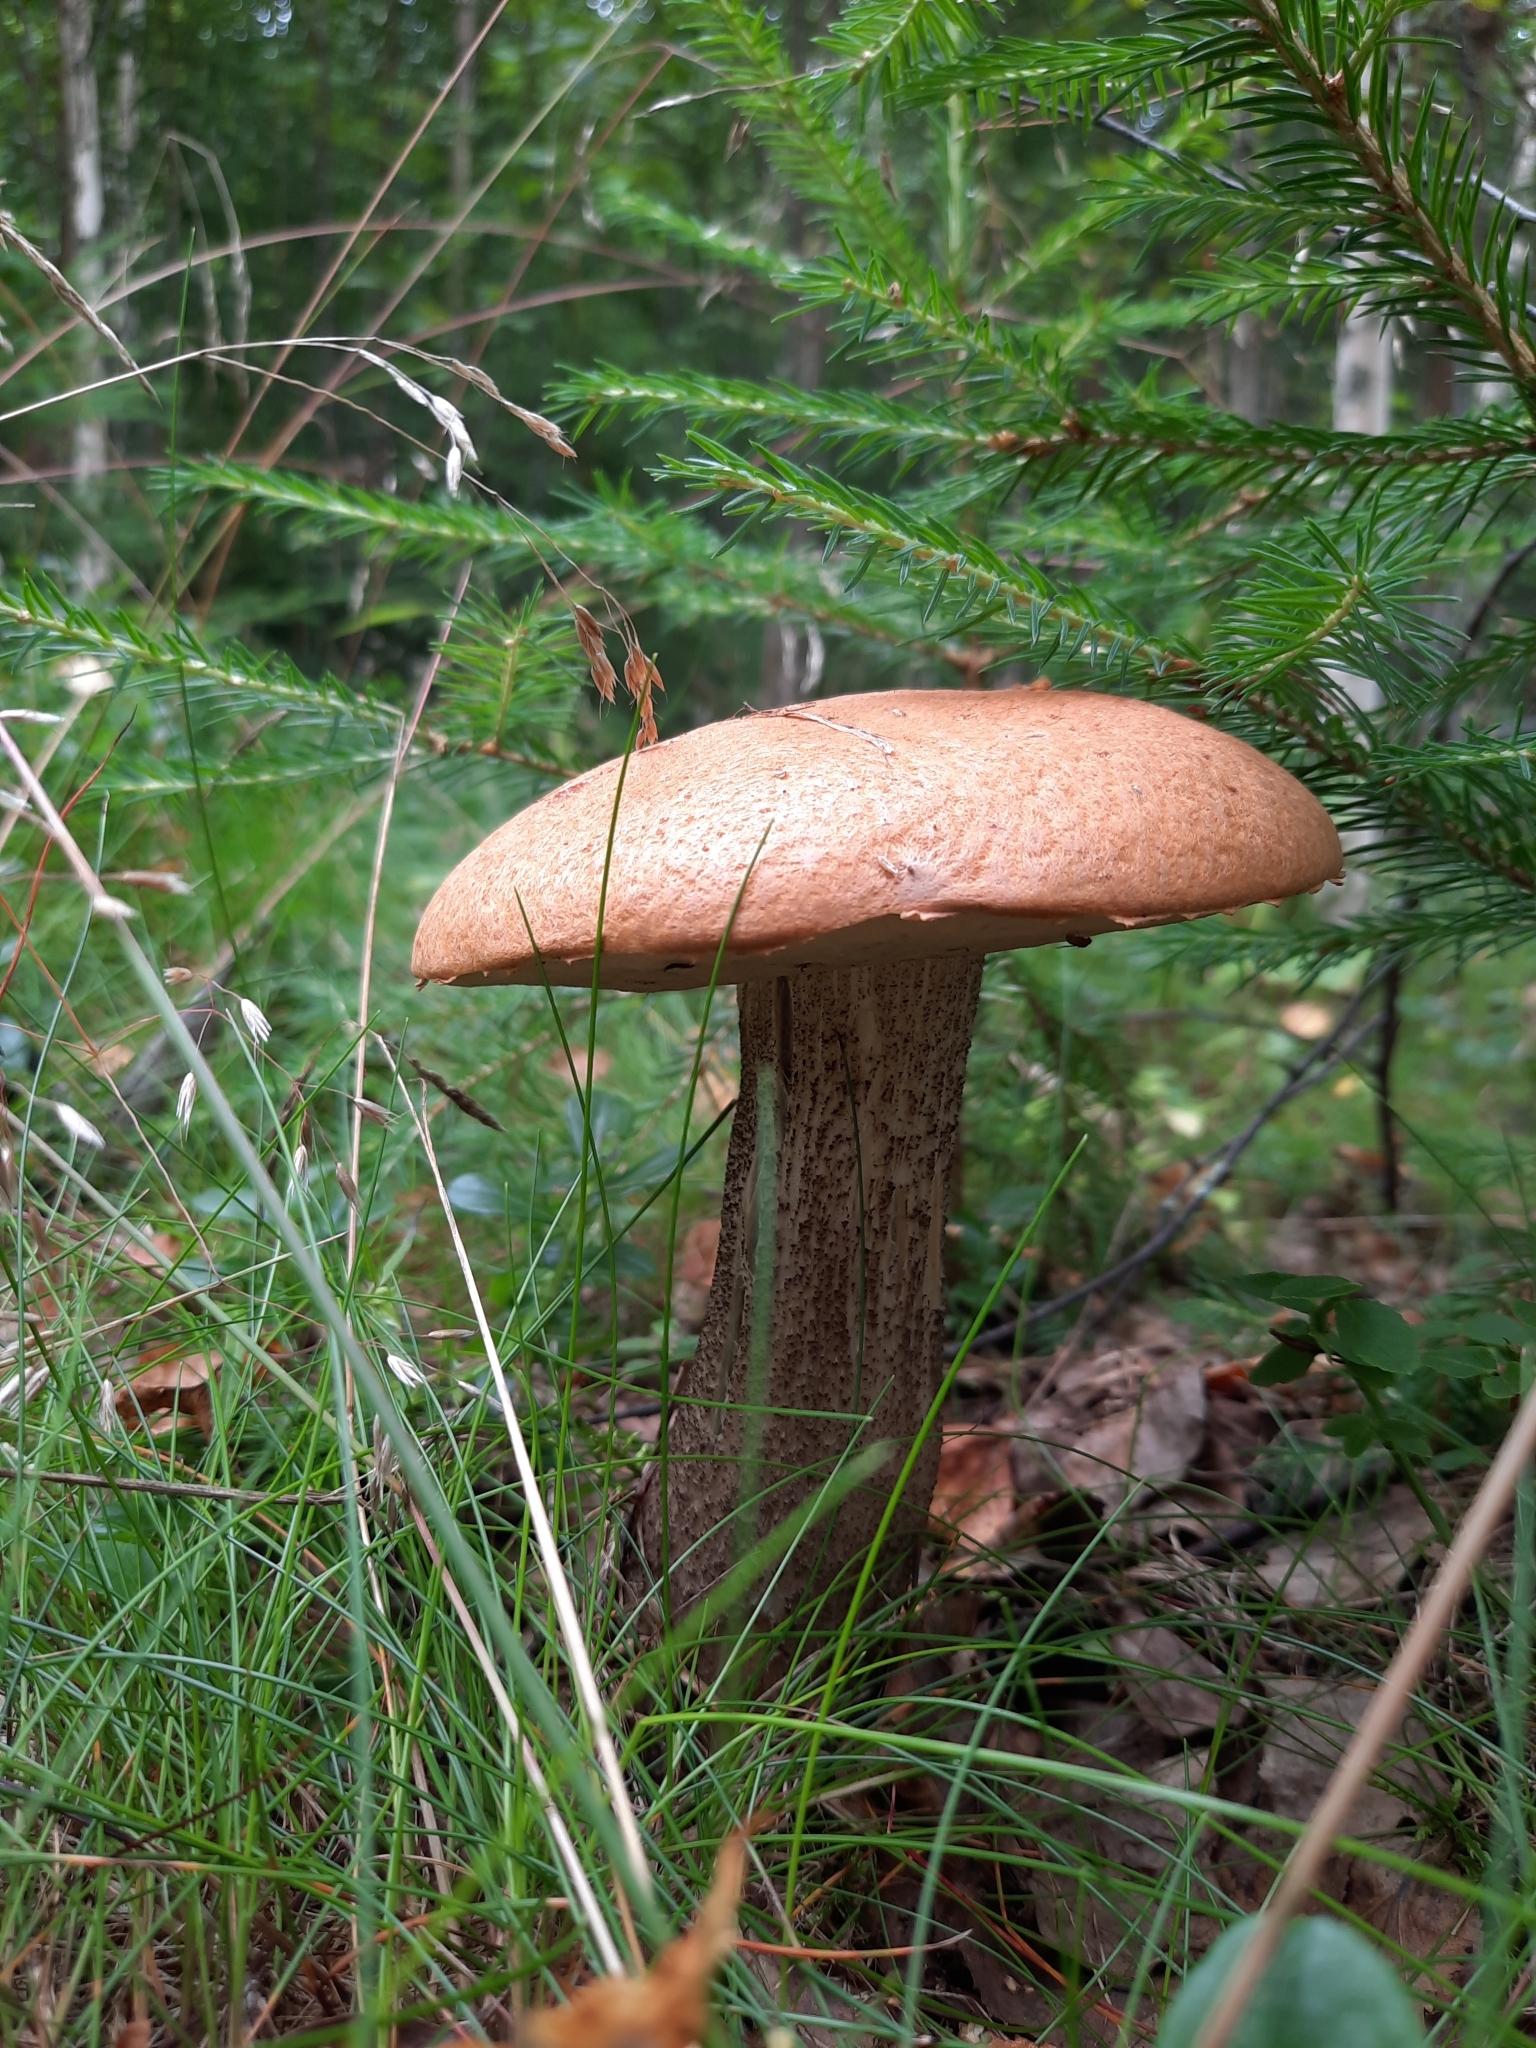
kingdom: Fungi
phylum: Basidiomycota
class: Agaricomycetes
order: Boletales
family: Boletaceae
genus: Leccinum
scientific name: Leccinum versipelle
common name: Orange birch bolete
